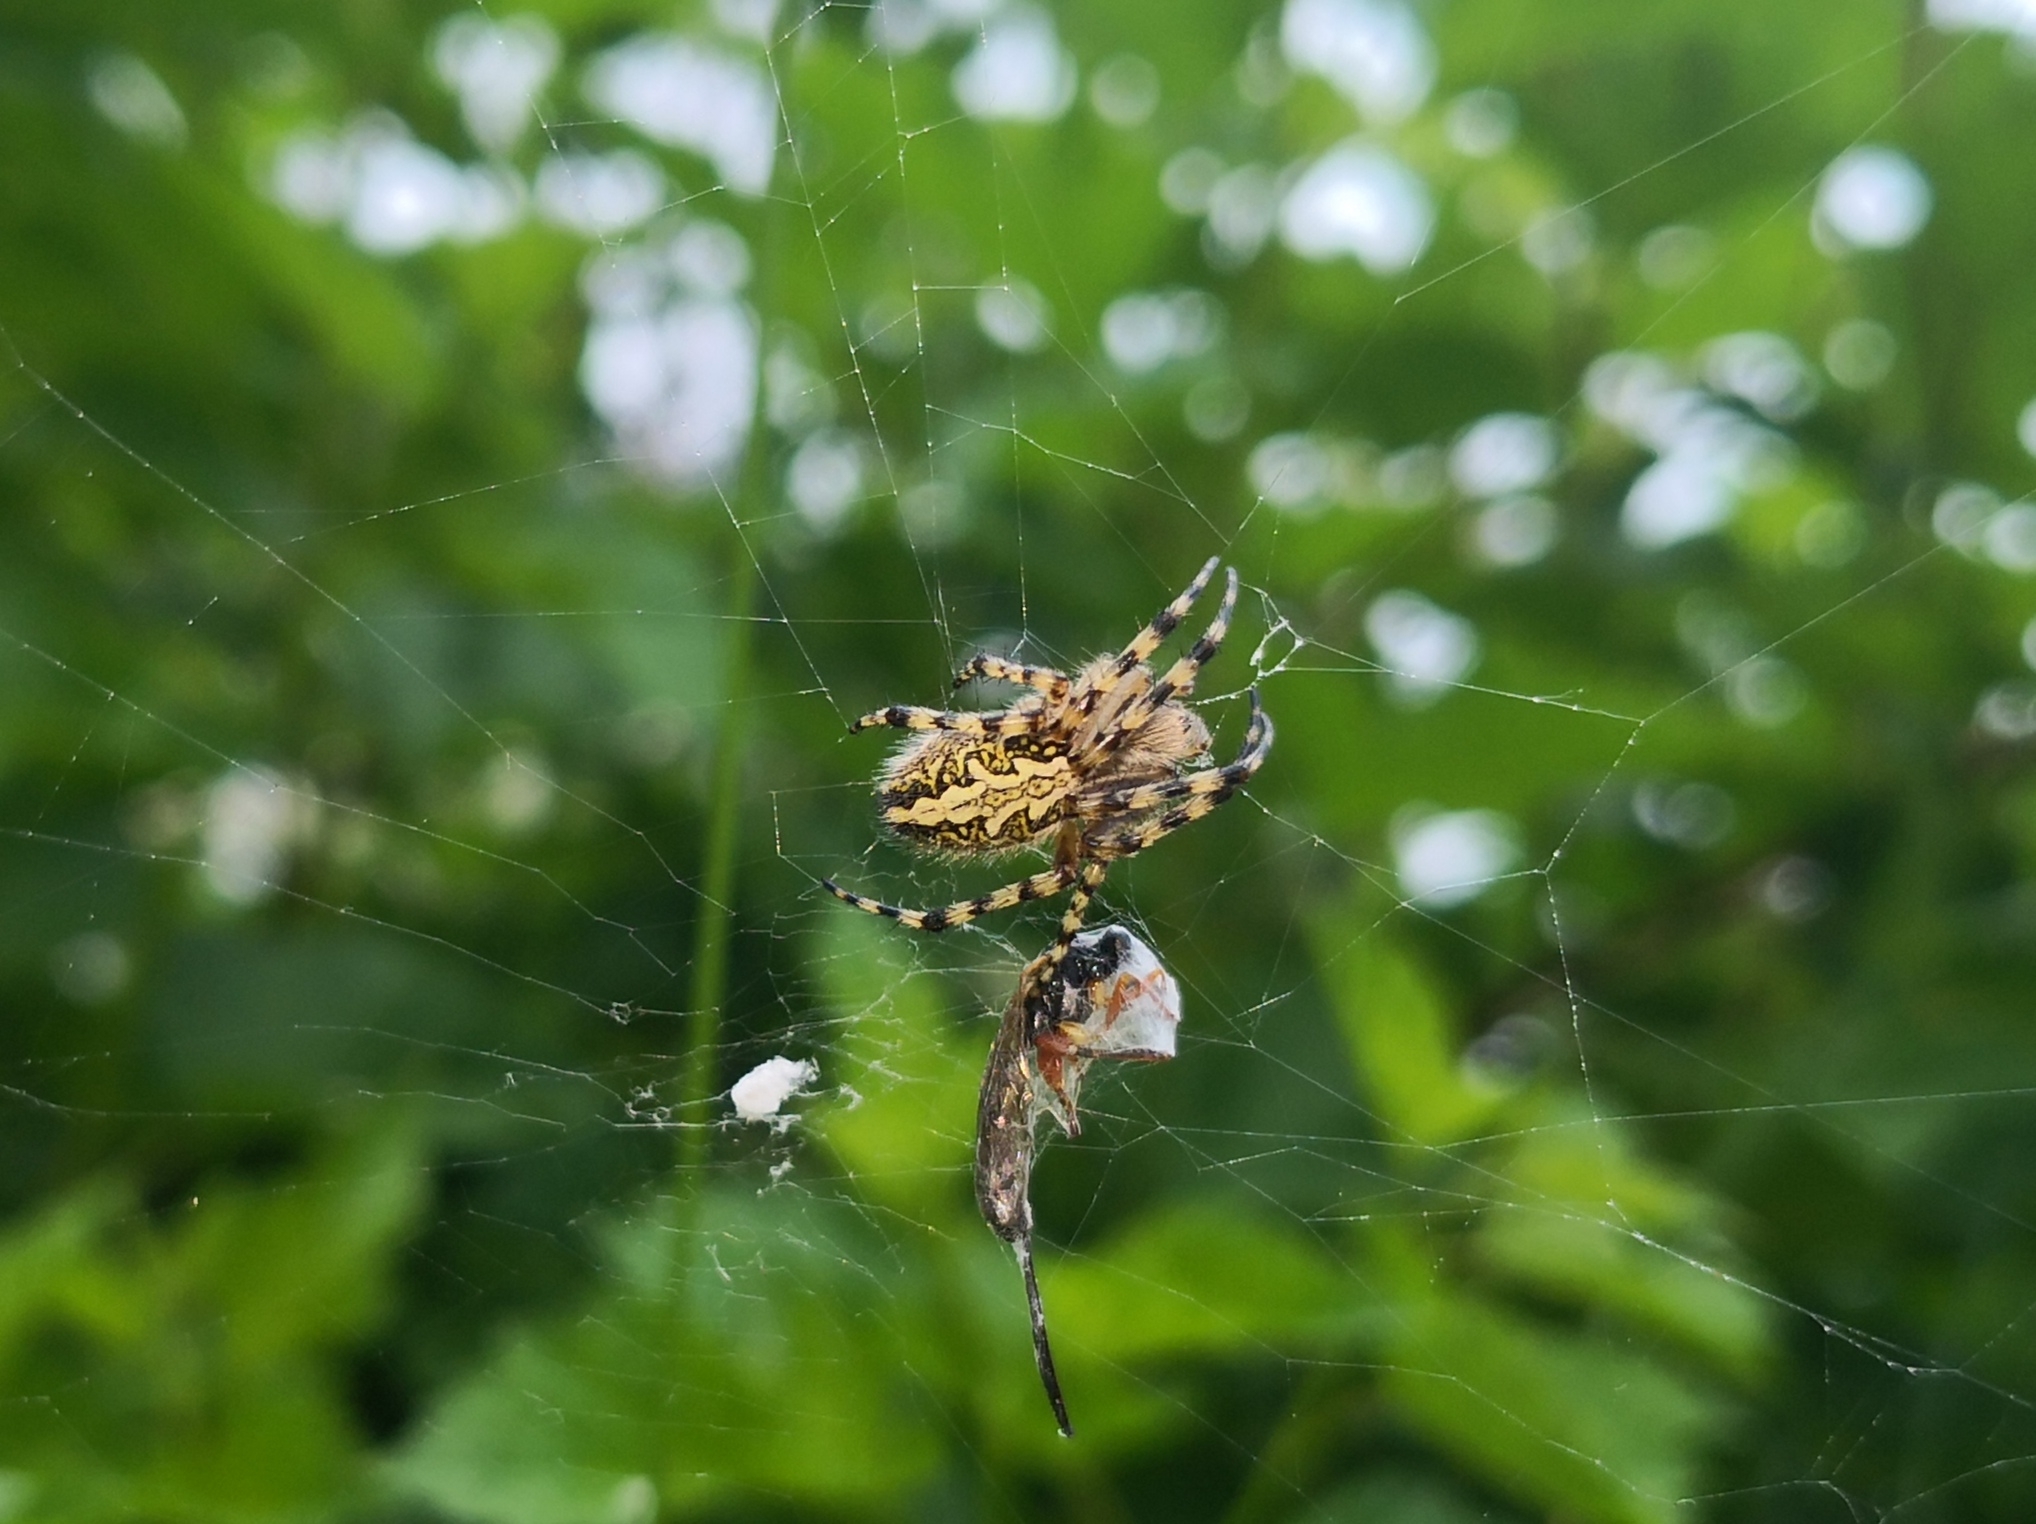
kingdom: Animalia
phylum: Arthropoda
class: Arachnida
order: Araneae
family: Araneidae
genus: Aculepeira
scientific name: Aculepeira ceropegia
